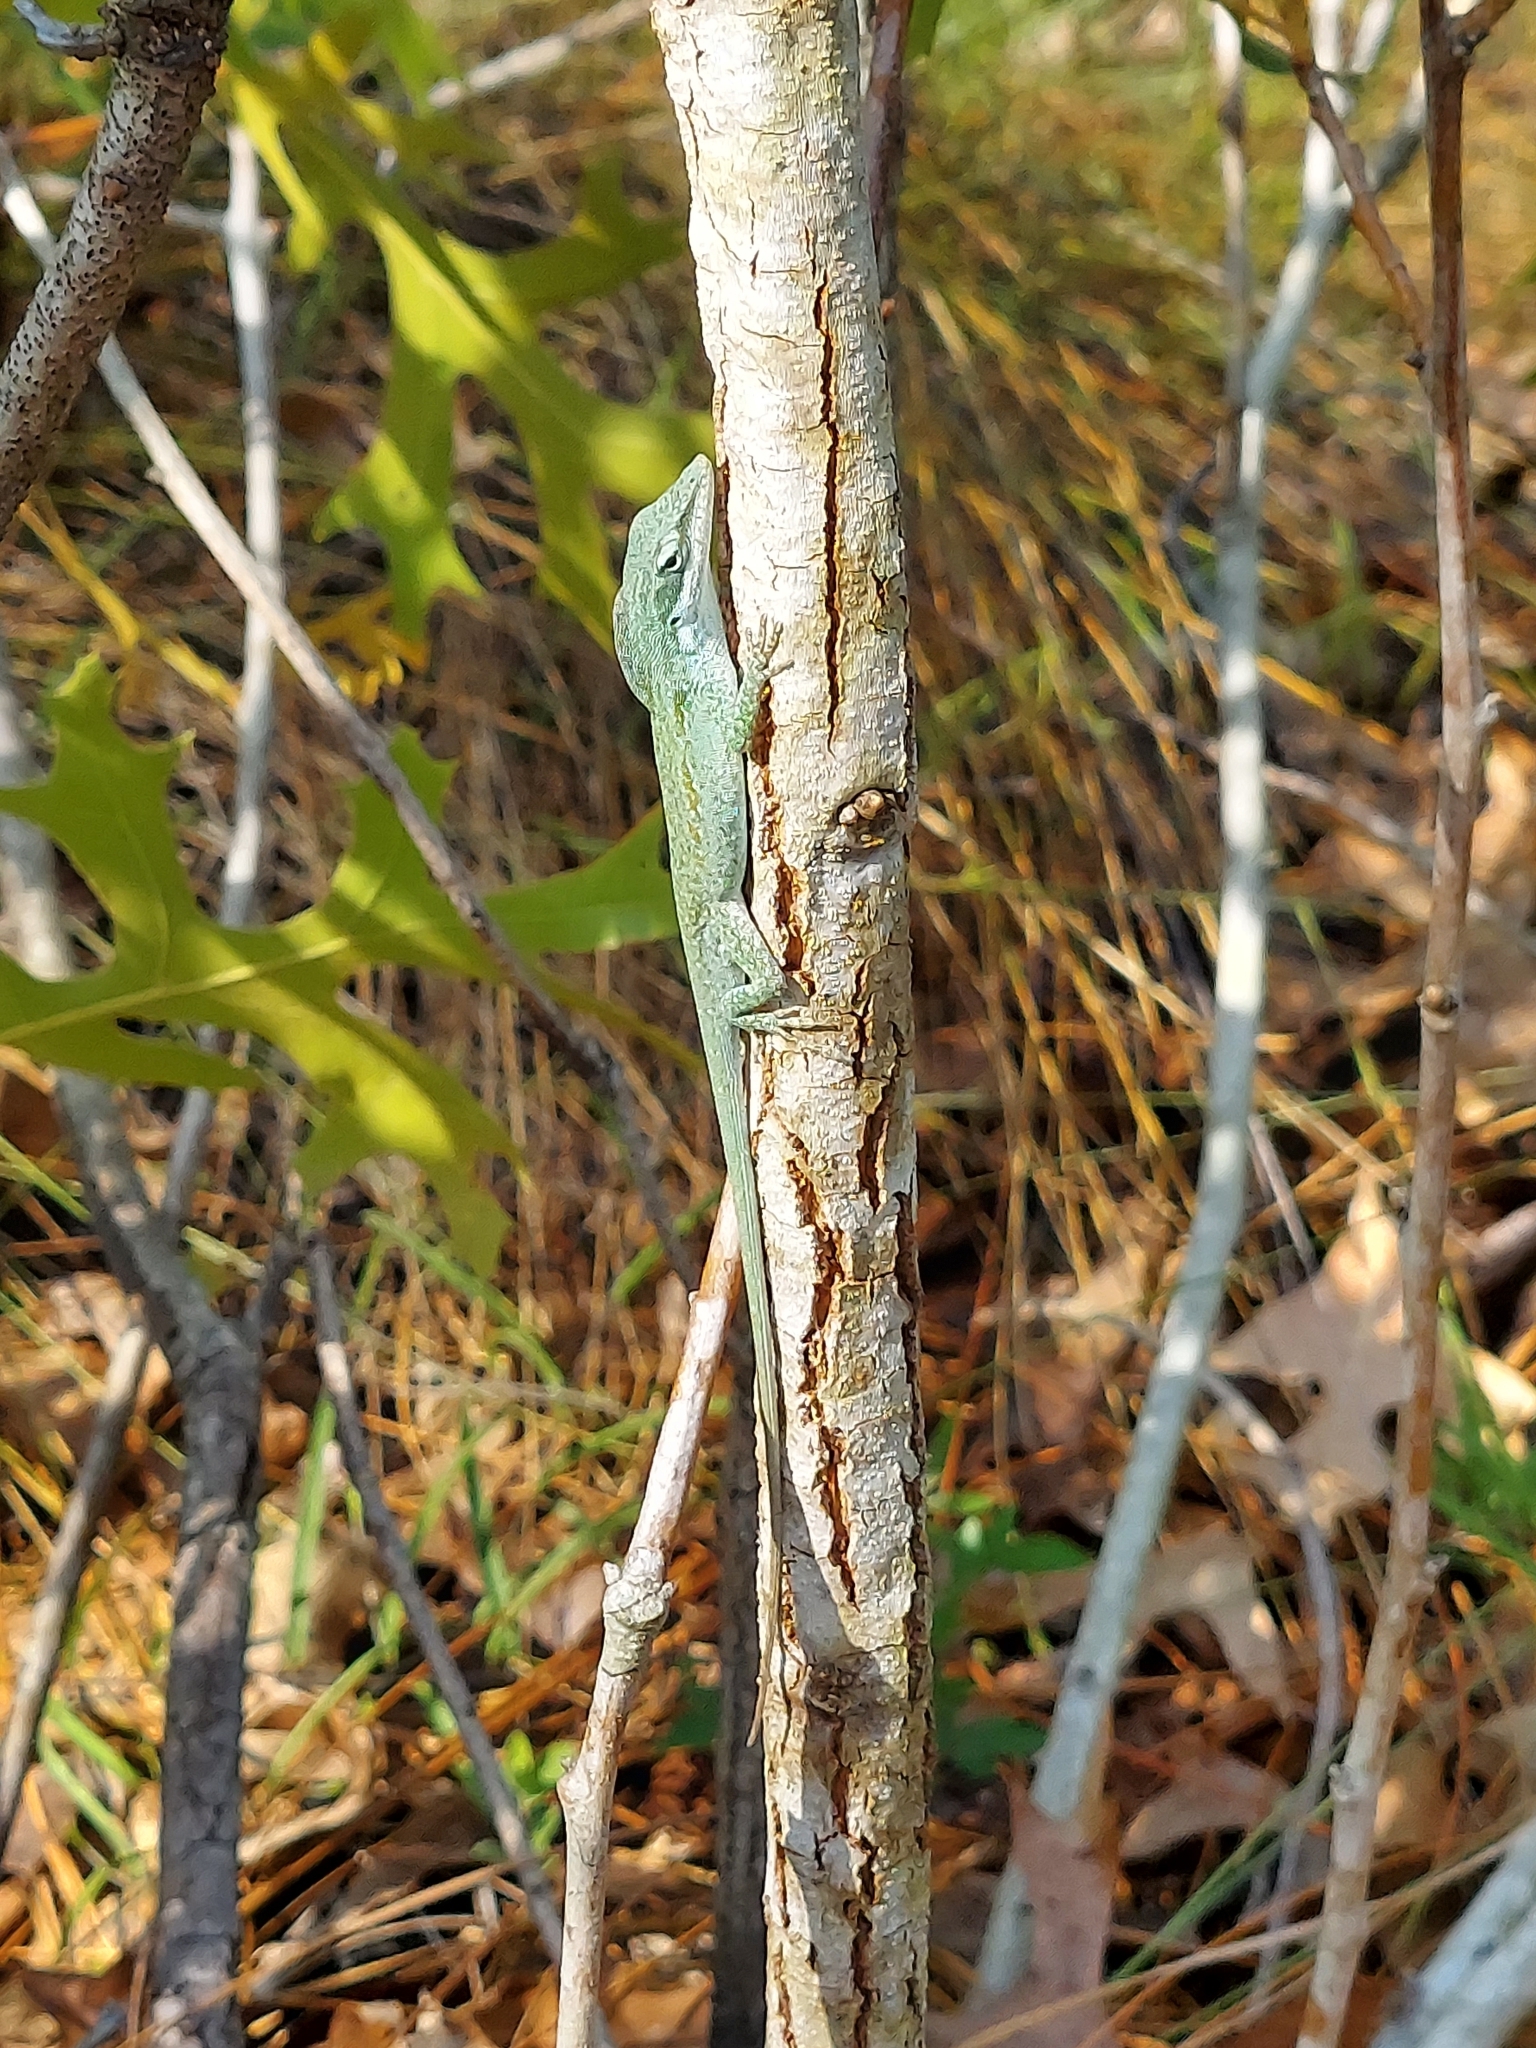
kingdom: Animalia
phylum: Chordata
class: Squamata
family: Dactyloidae
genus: Anolis
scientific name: Anolis carolinensis
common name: Green anole
